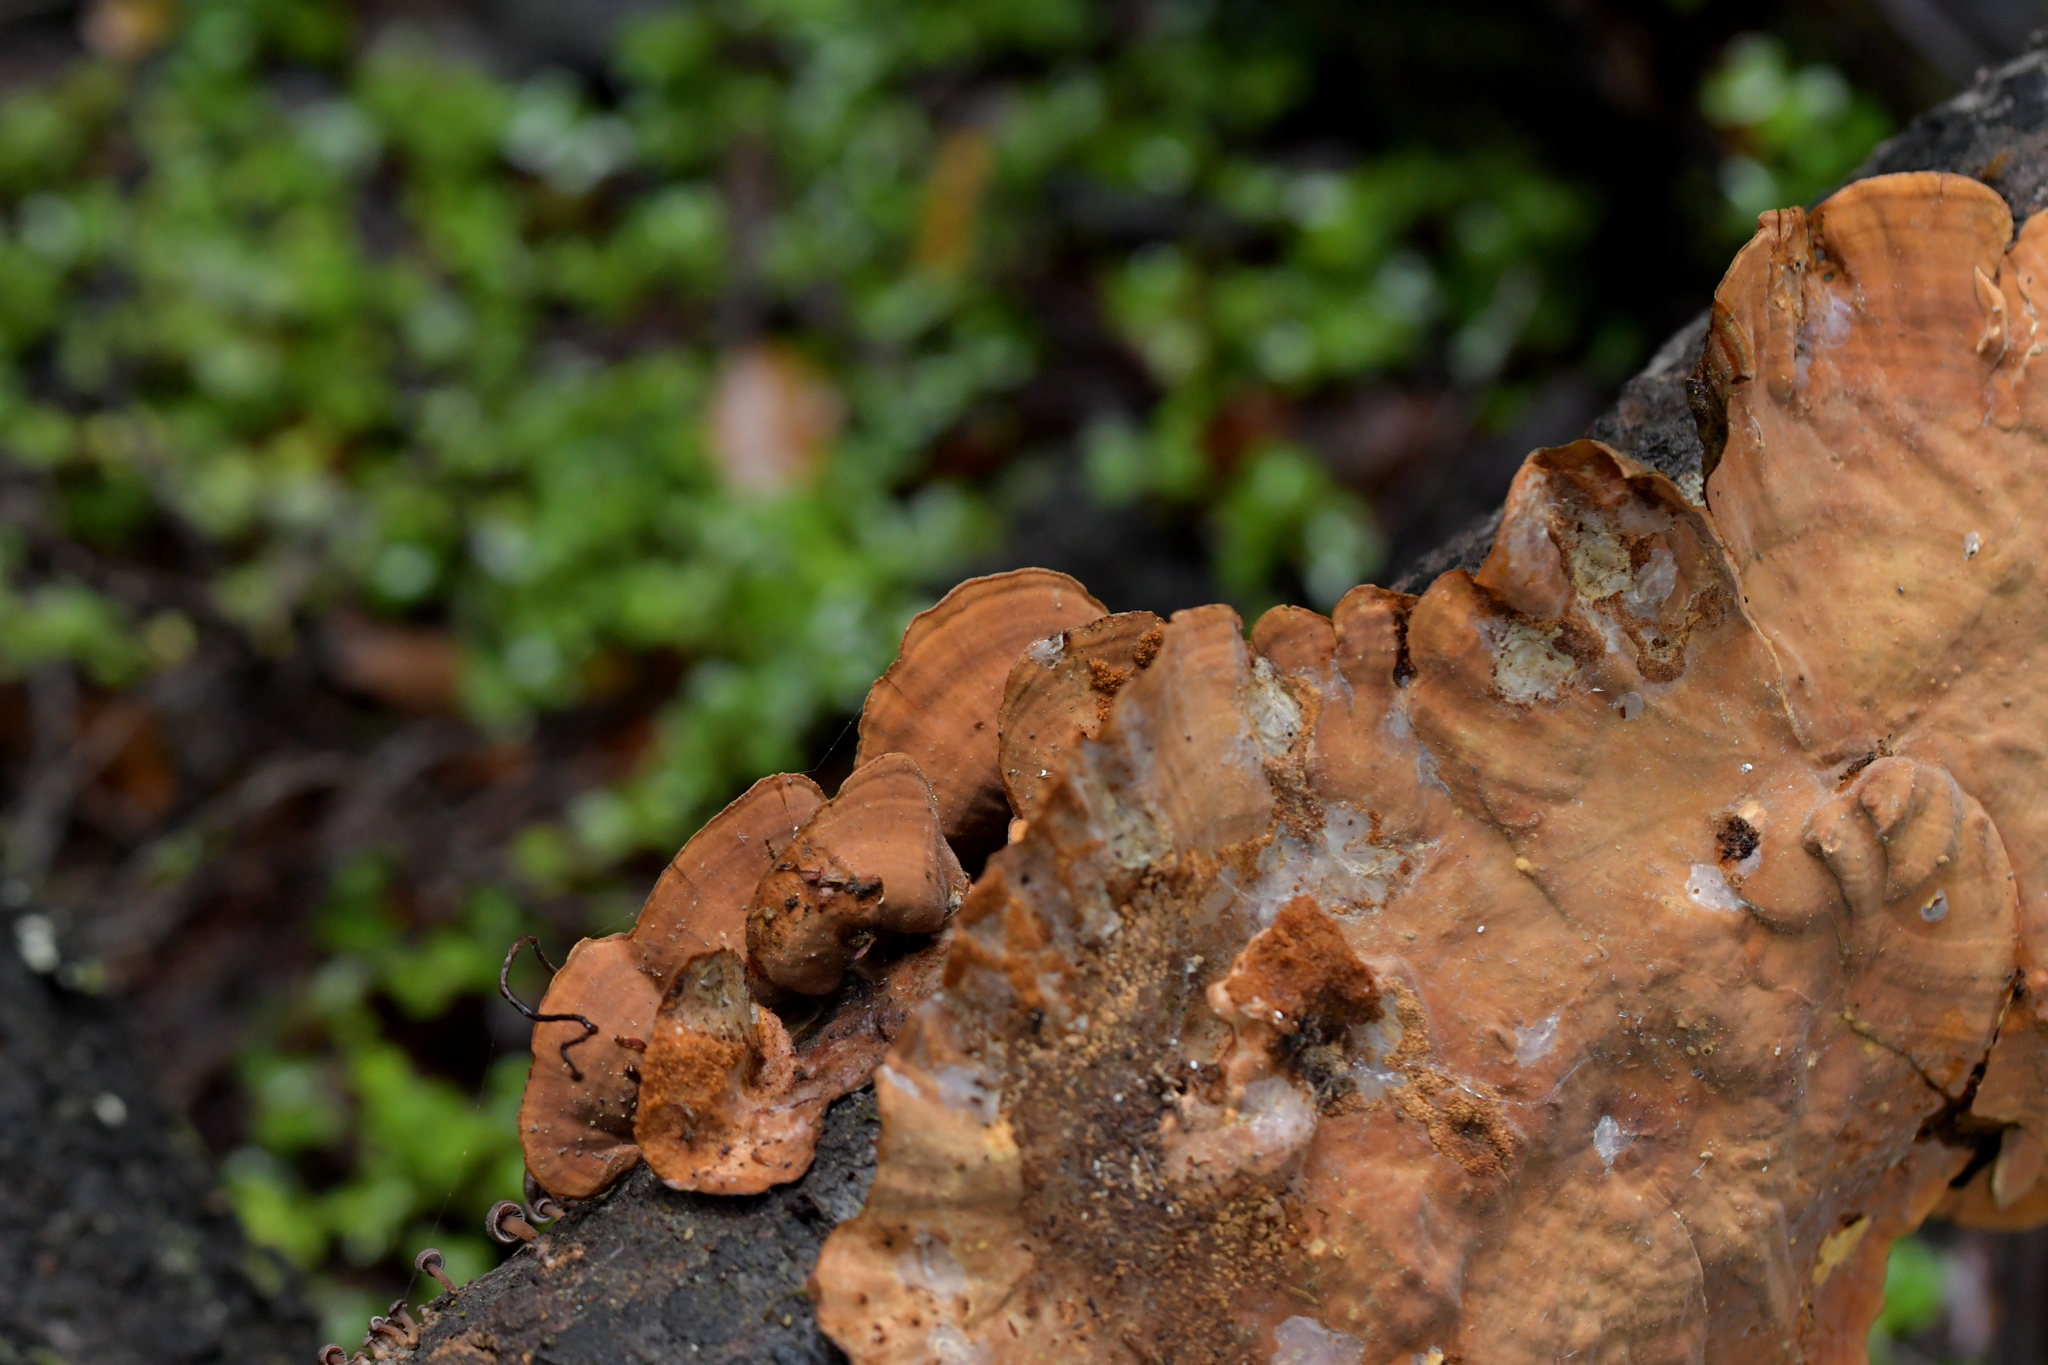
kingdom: Fungi
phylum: Basidiomycota
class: Agaricomycetes
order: Russulales
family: Stereaceae
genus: Stereum
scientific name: Stereum versicolor
